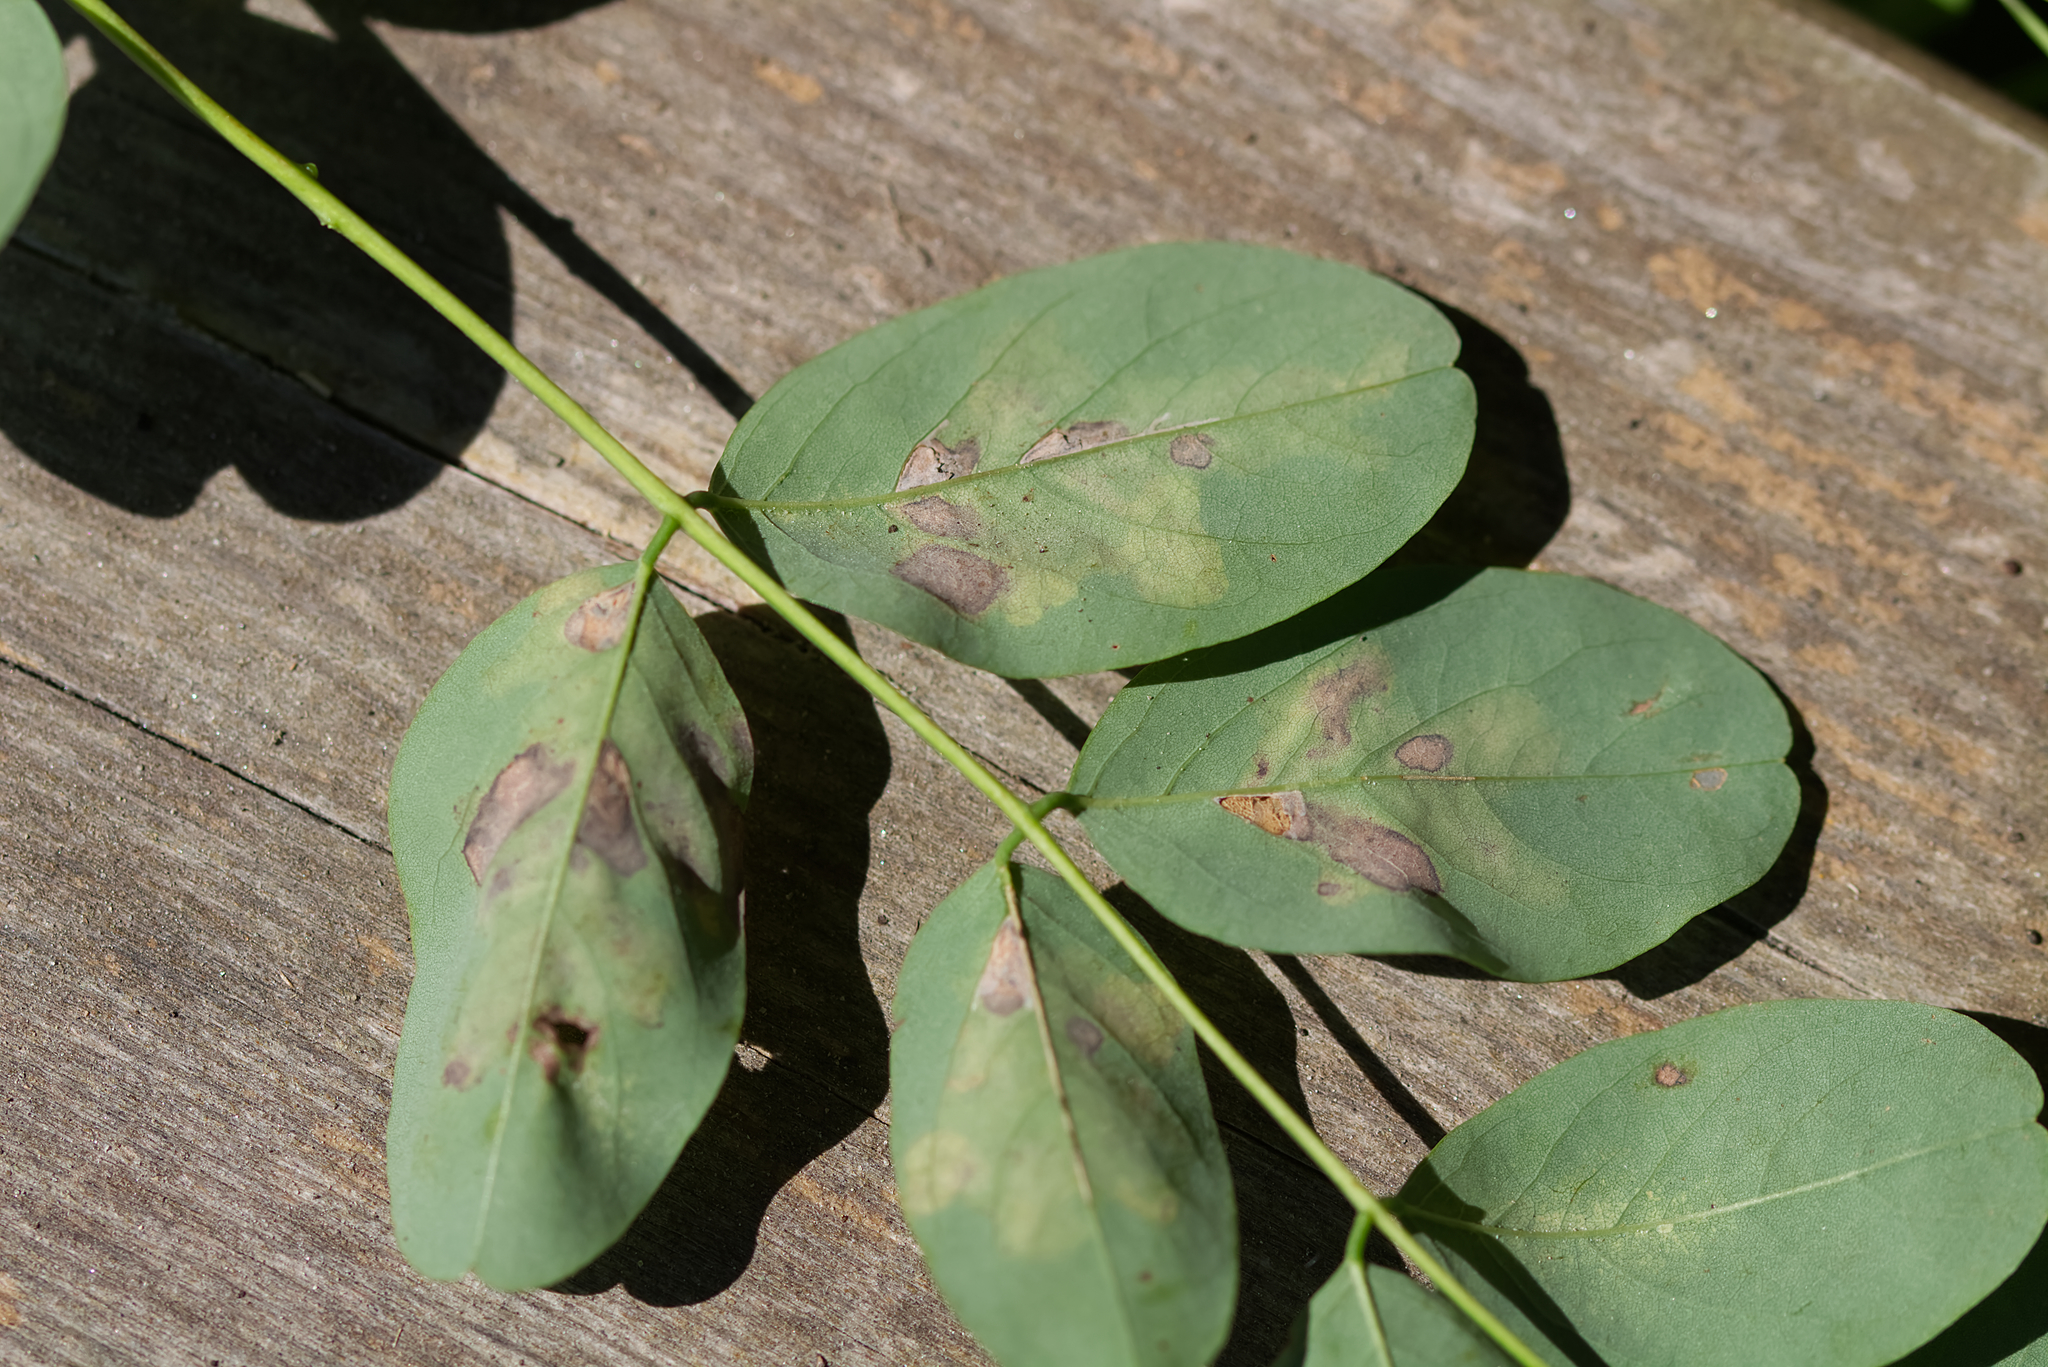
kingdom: Animalia
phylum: Arthropoda
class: Insecta
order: Lepidoptera
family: Gracillariidae
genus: Parectopa
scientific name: Parectopa robiniella
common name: Locust digitate leafminer
